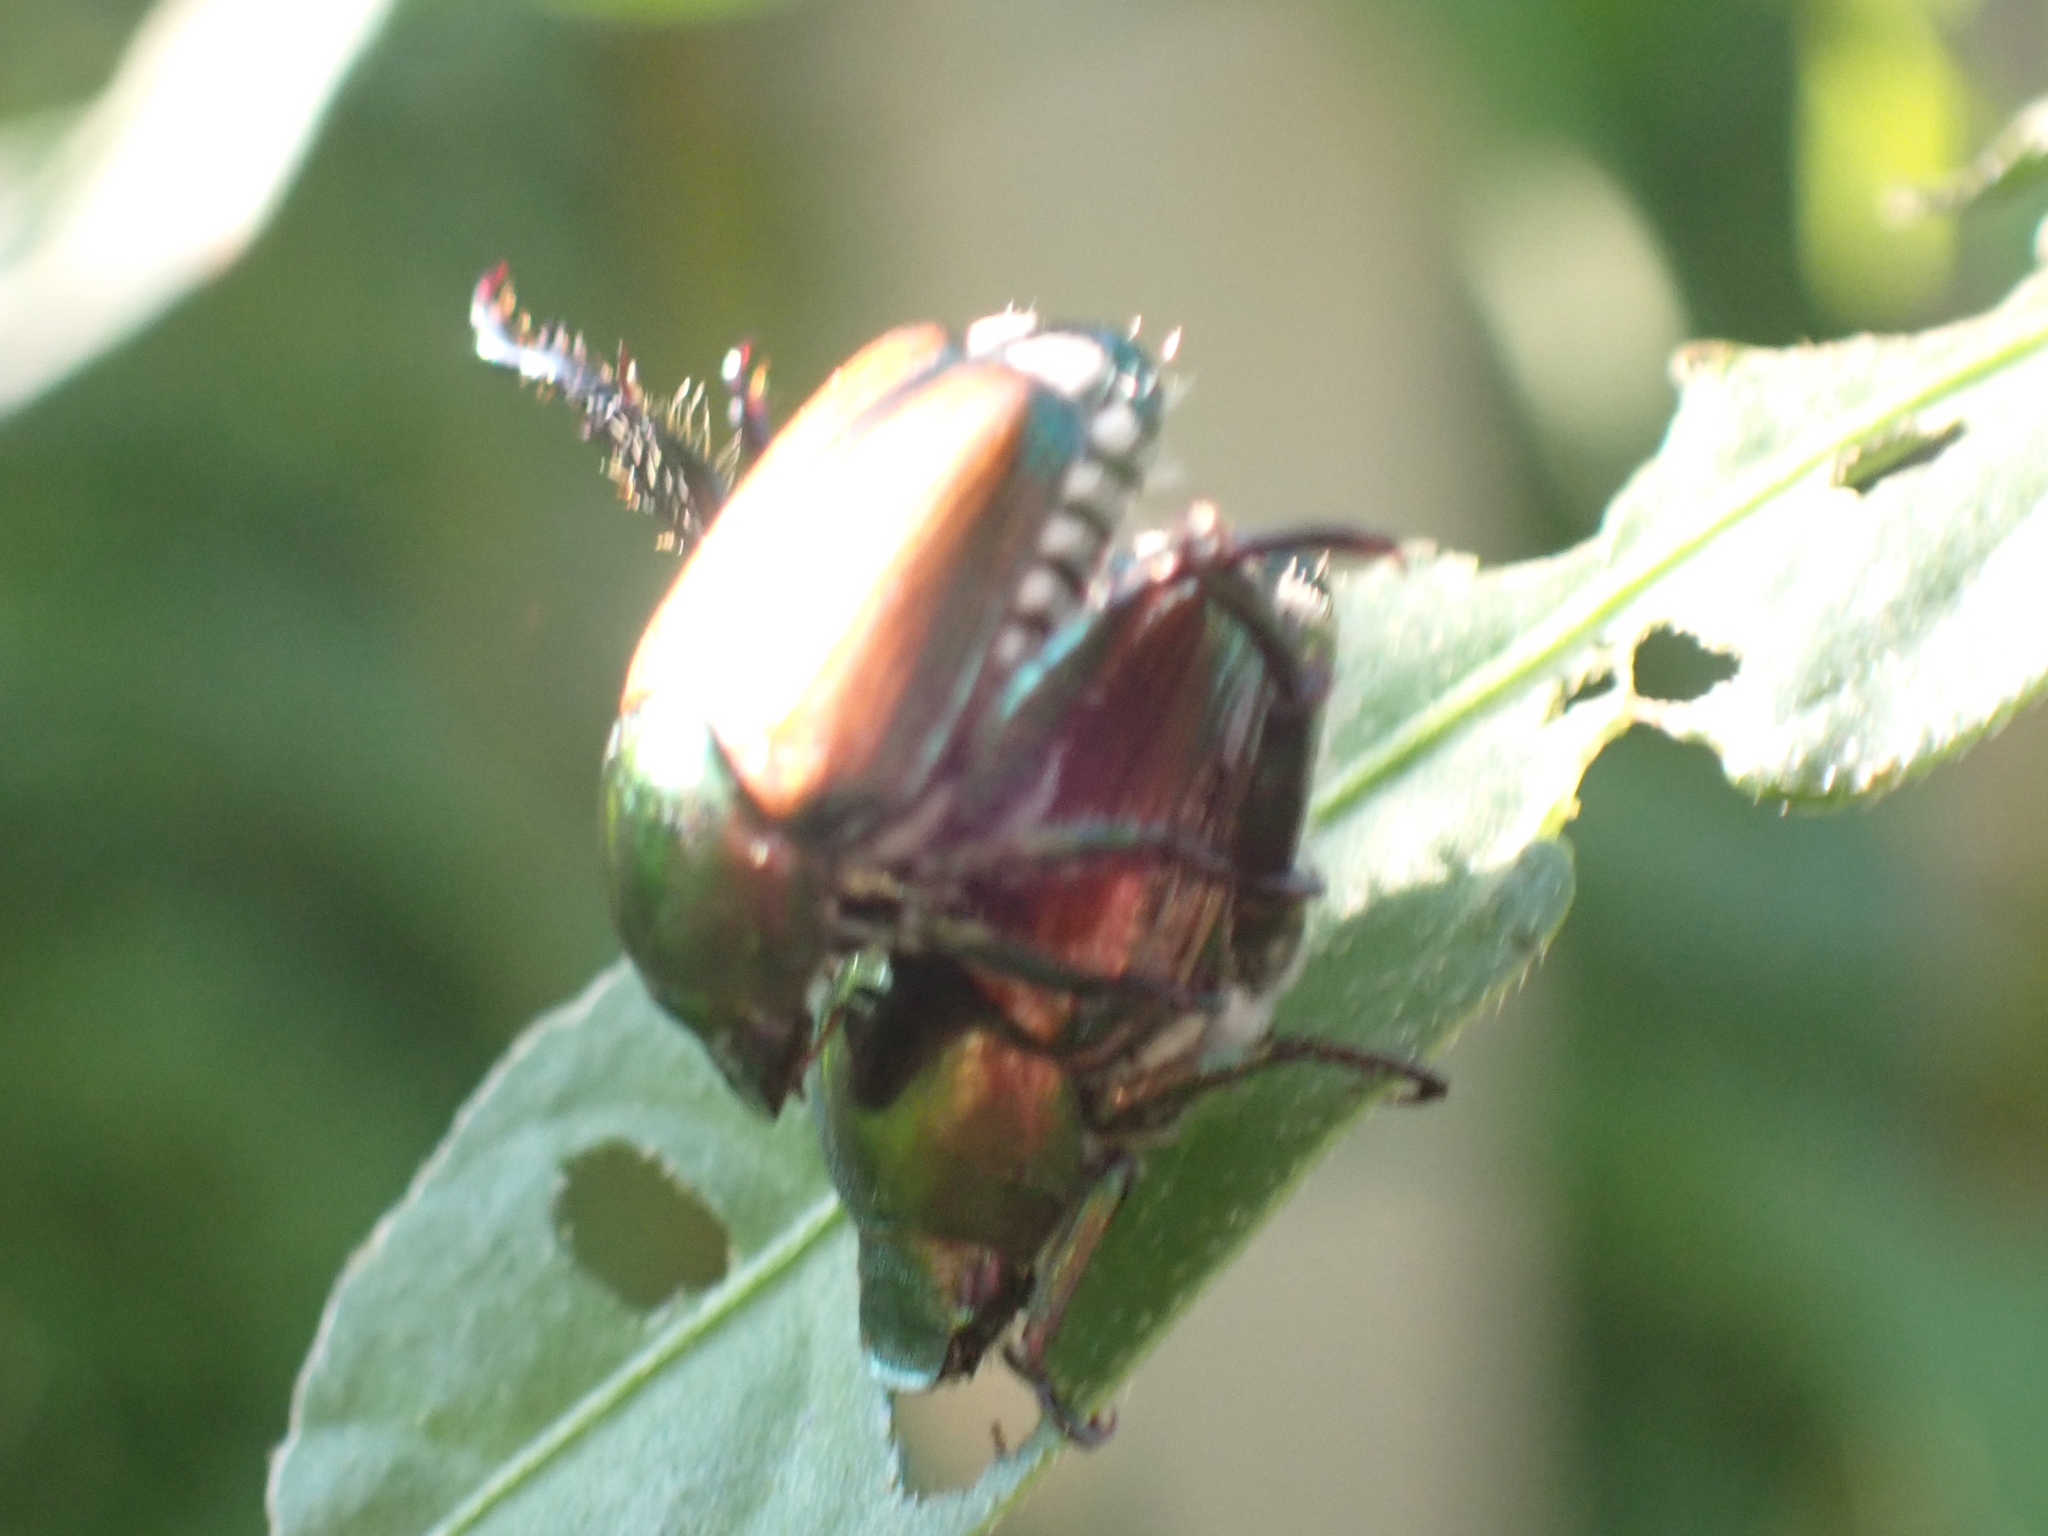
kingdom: Animalia
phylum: Arthropoda
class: Insecta
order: Coleoptera
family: Scarabaeidae
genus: Popillia
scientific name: Popillia japonica
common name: Japanese beetle
